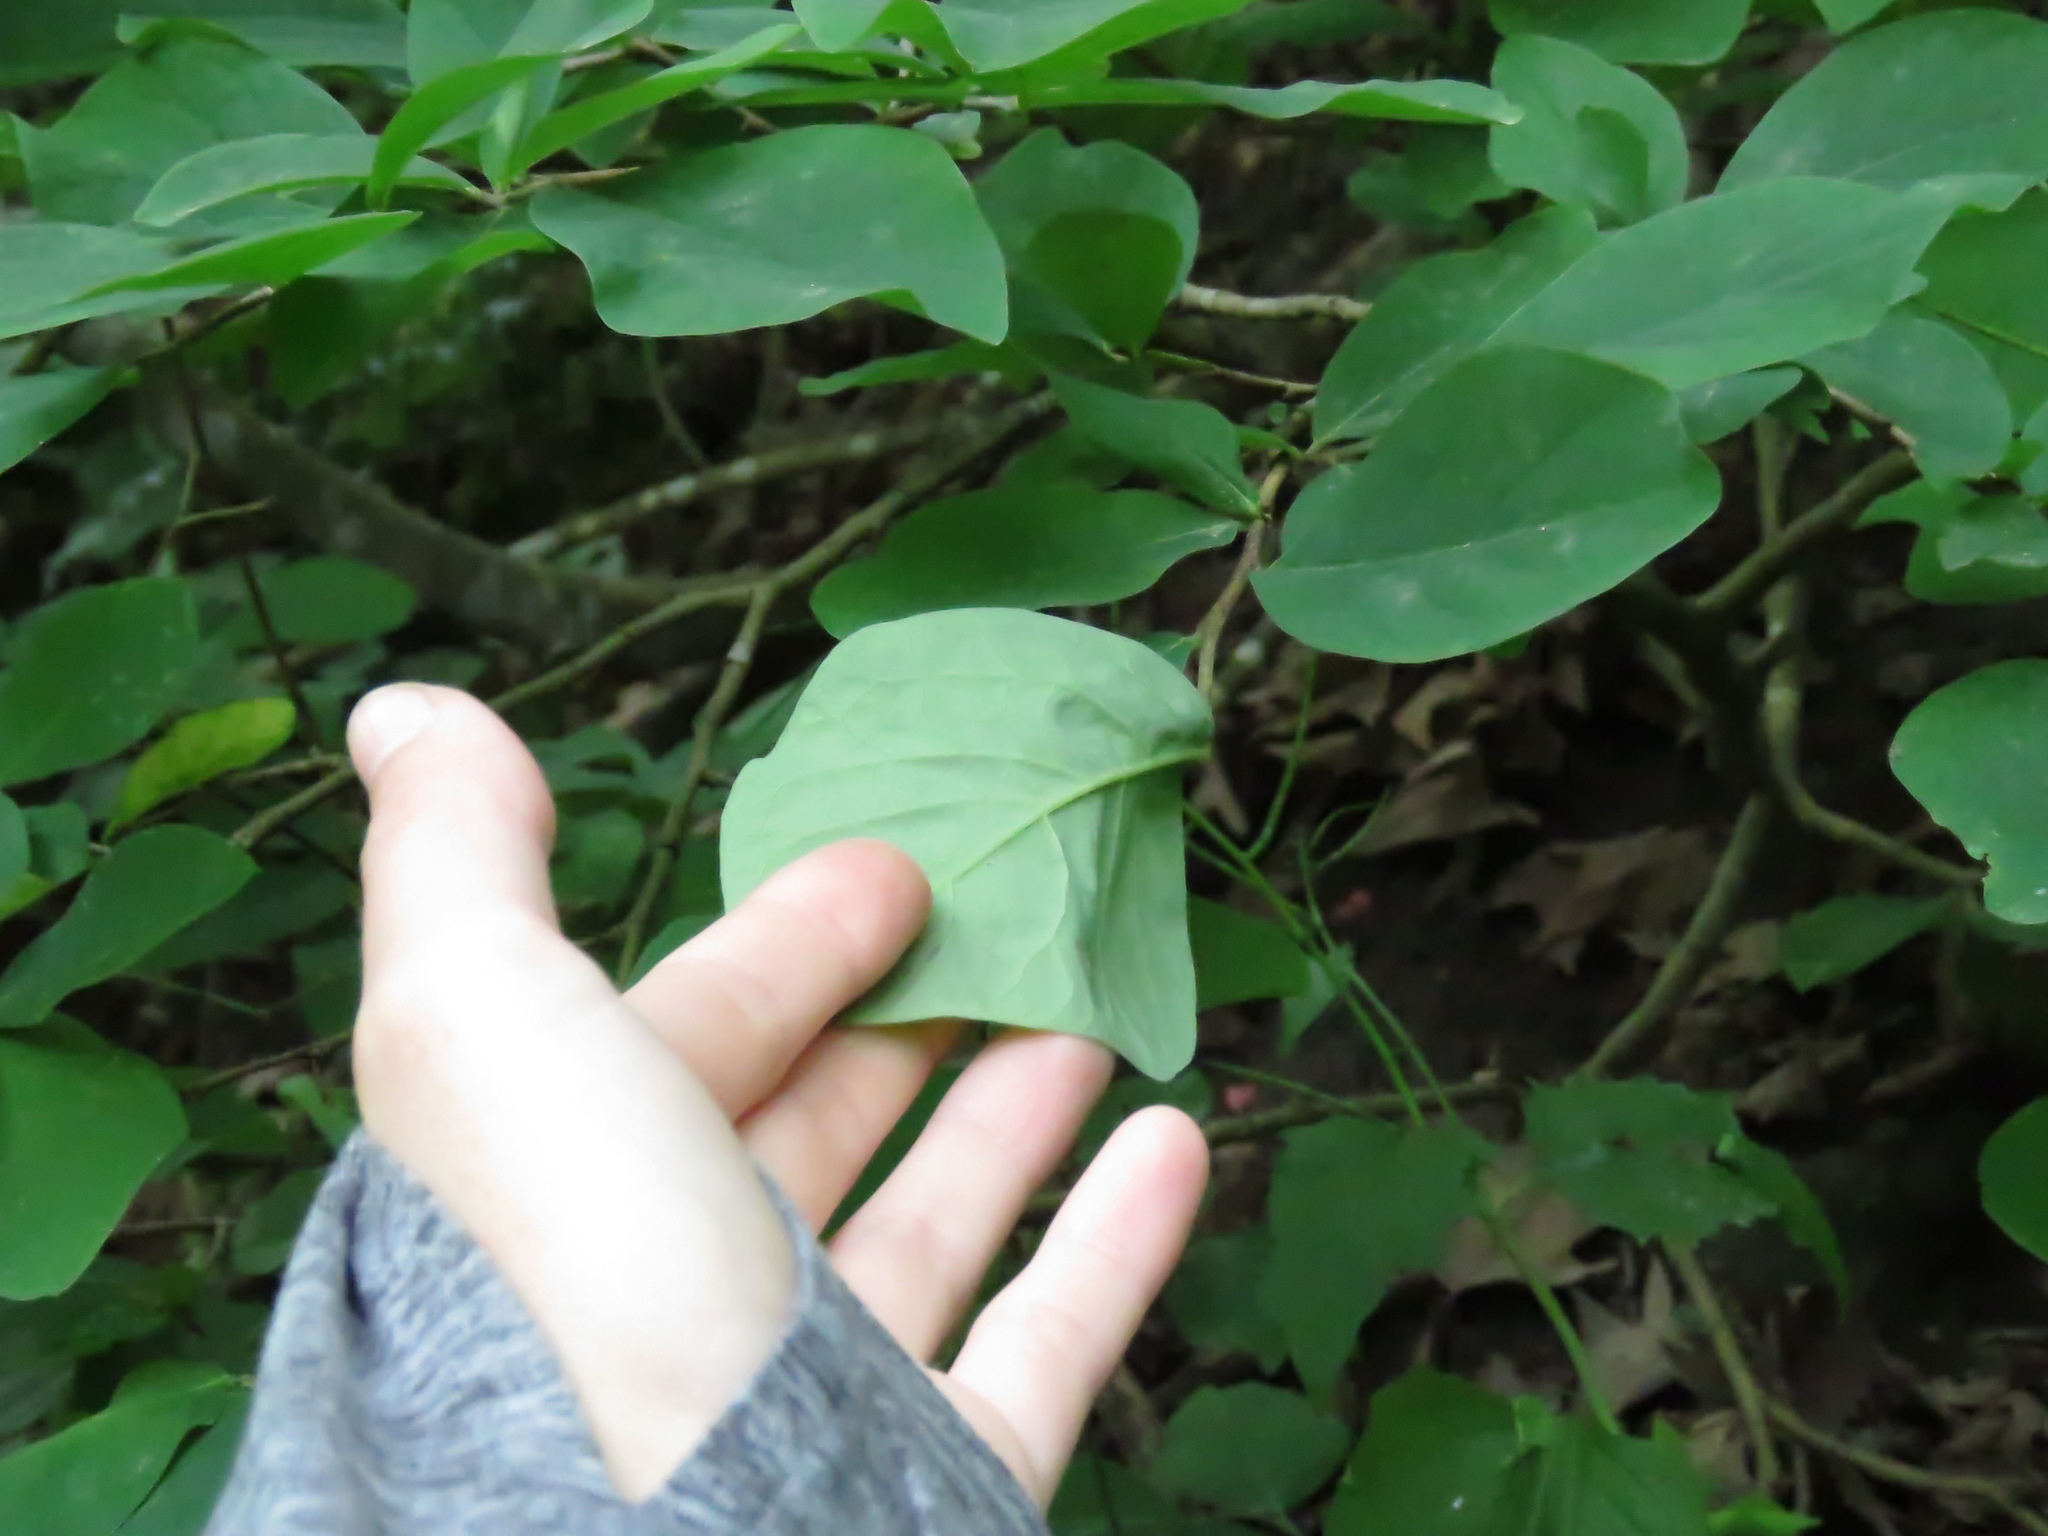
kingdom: Plantae
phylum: Tracheophyta
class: Magnoliopsida
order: Malvales
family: Thymelaeaceae
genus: Dirca
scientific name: Dirca palustris
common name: Leatherwood
